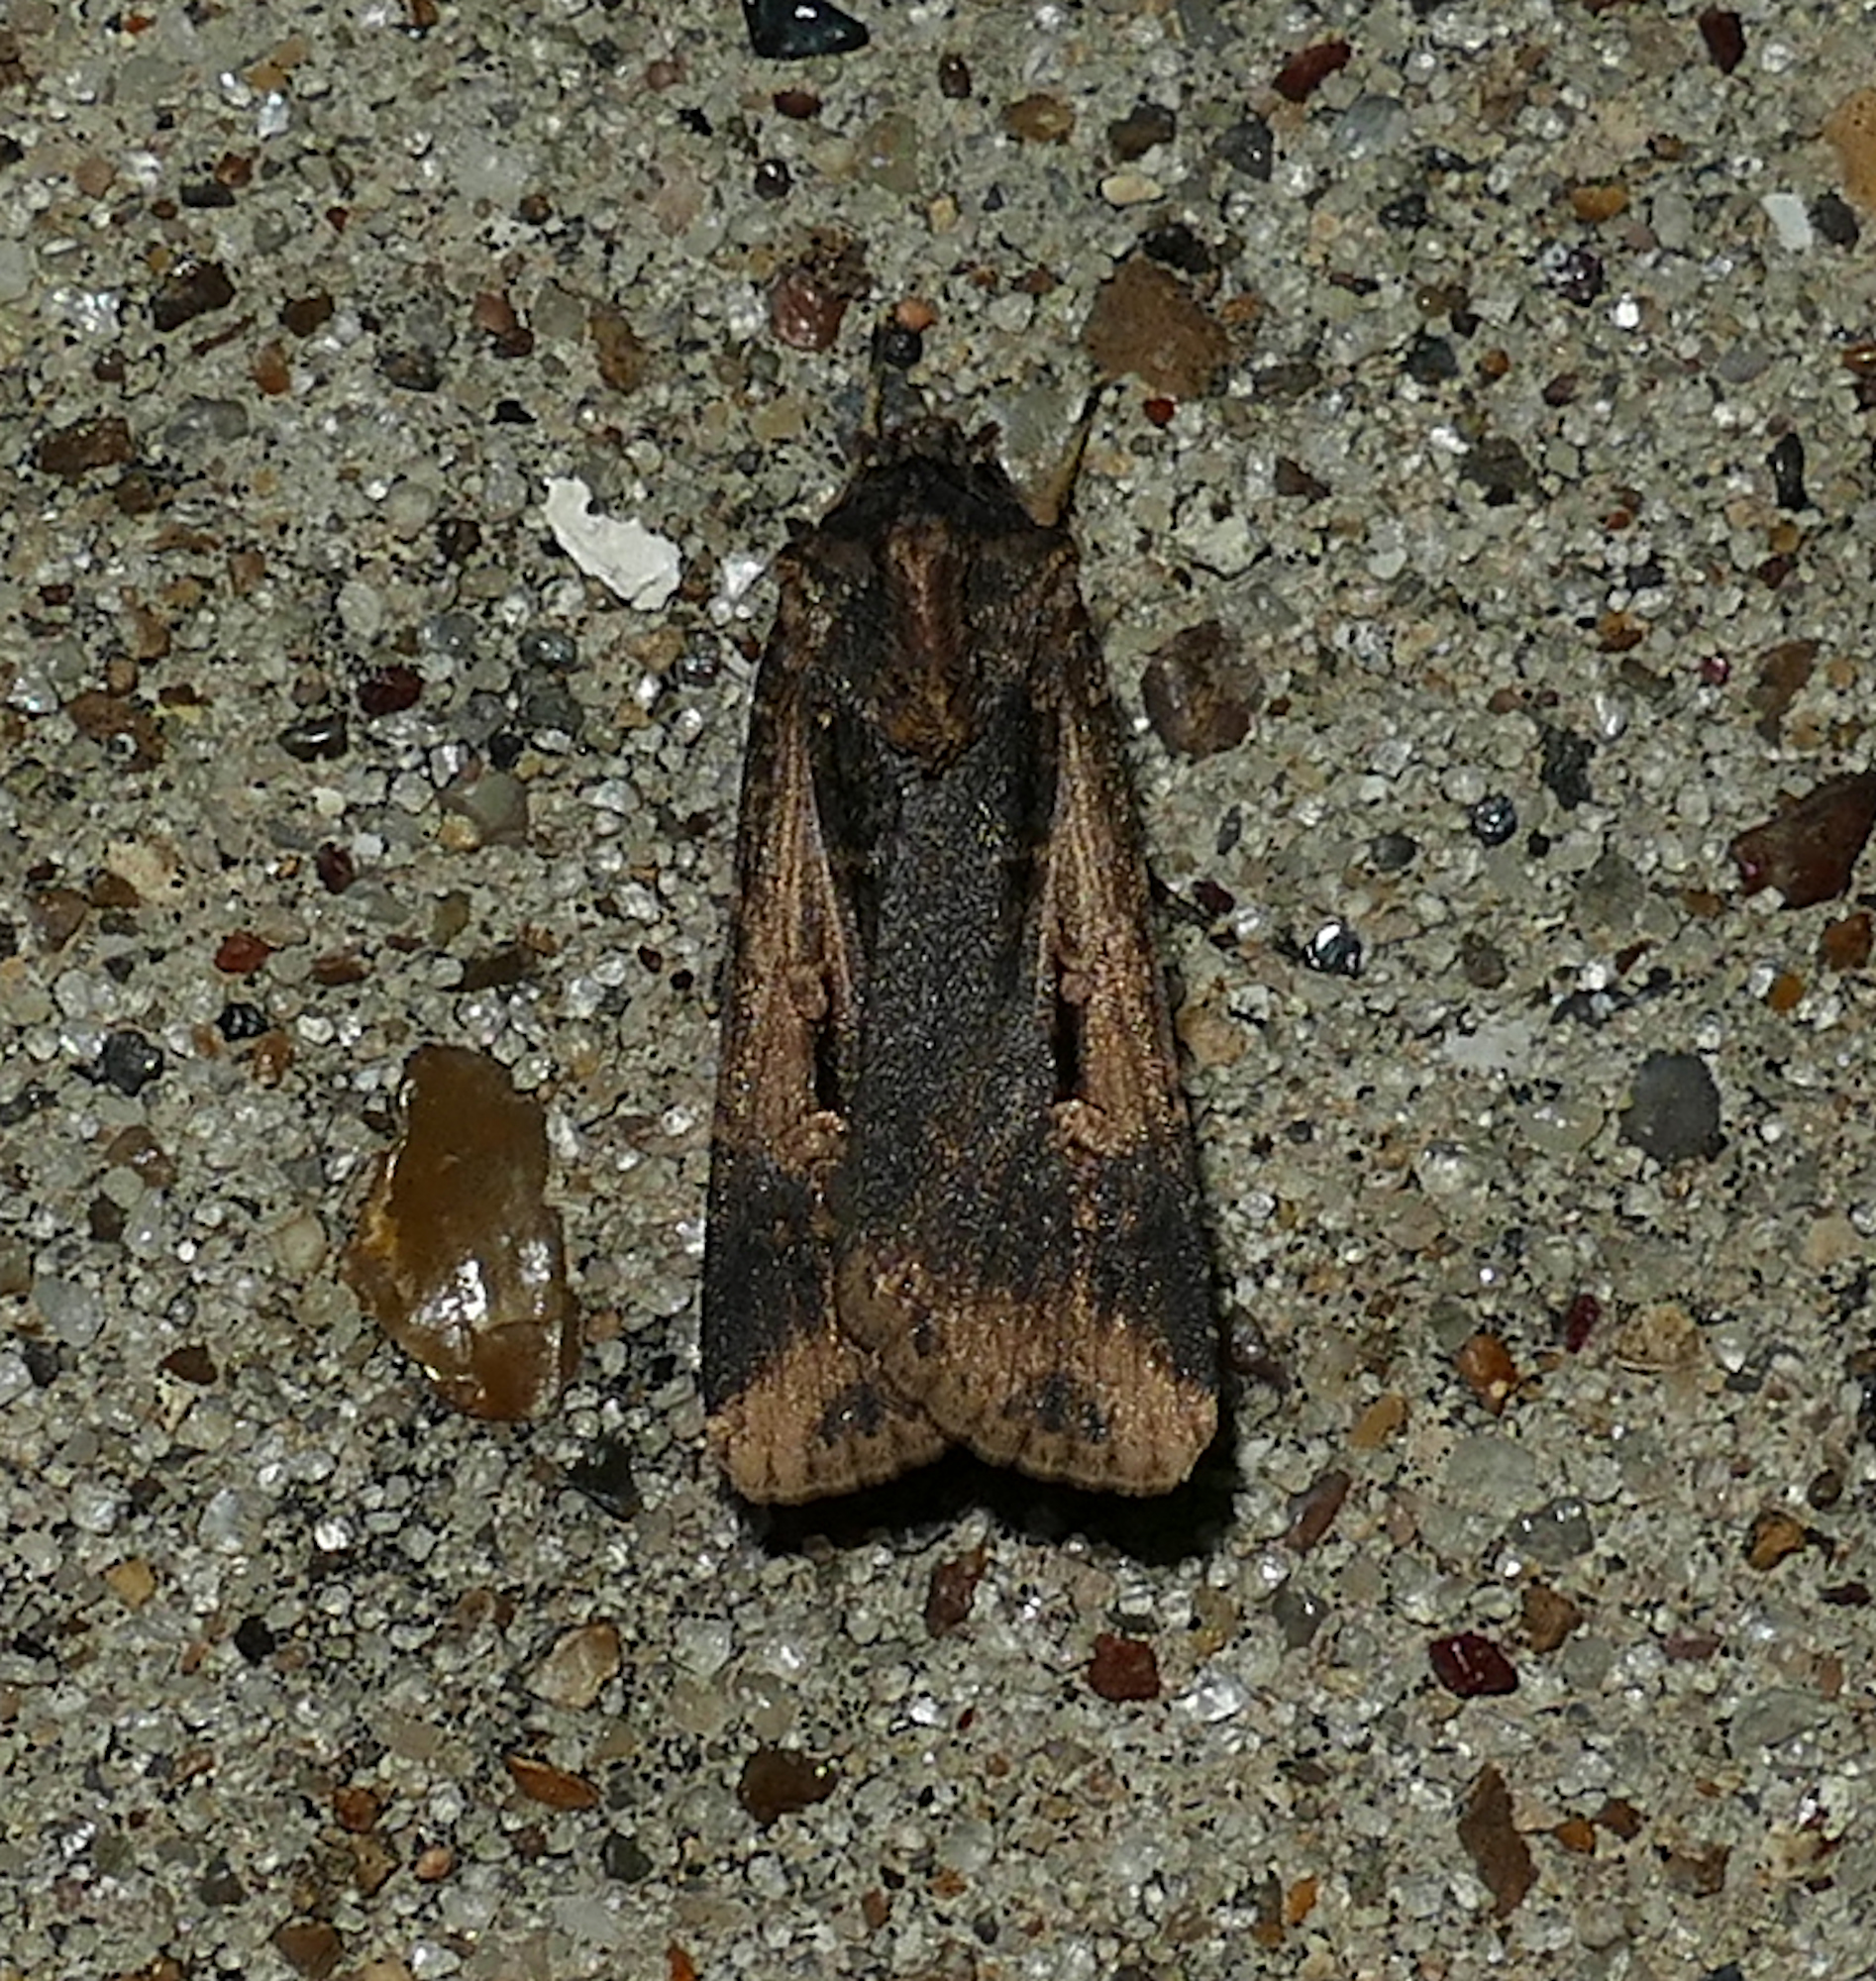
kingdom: Animalia
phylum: Arthropoda
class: Insecta
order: Lepidoptera
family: Noctuidae
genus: Feltia
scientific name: Feltia subterranea
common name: Granulate cutworm
